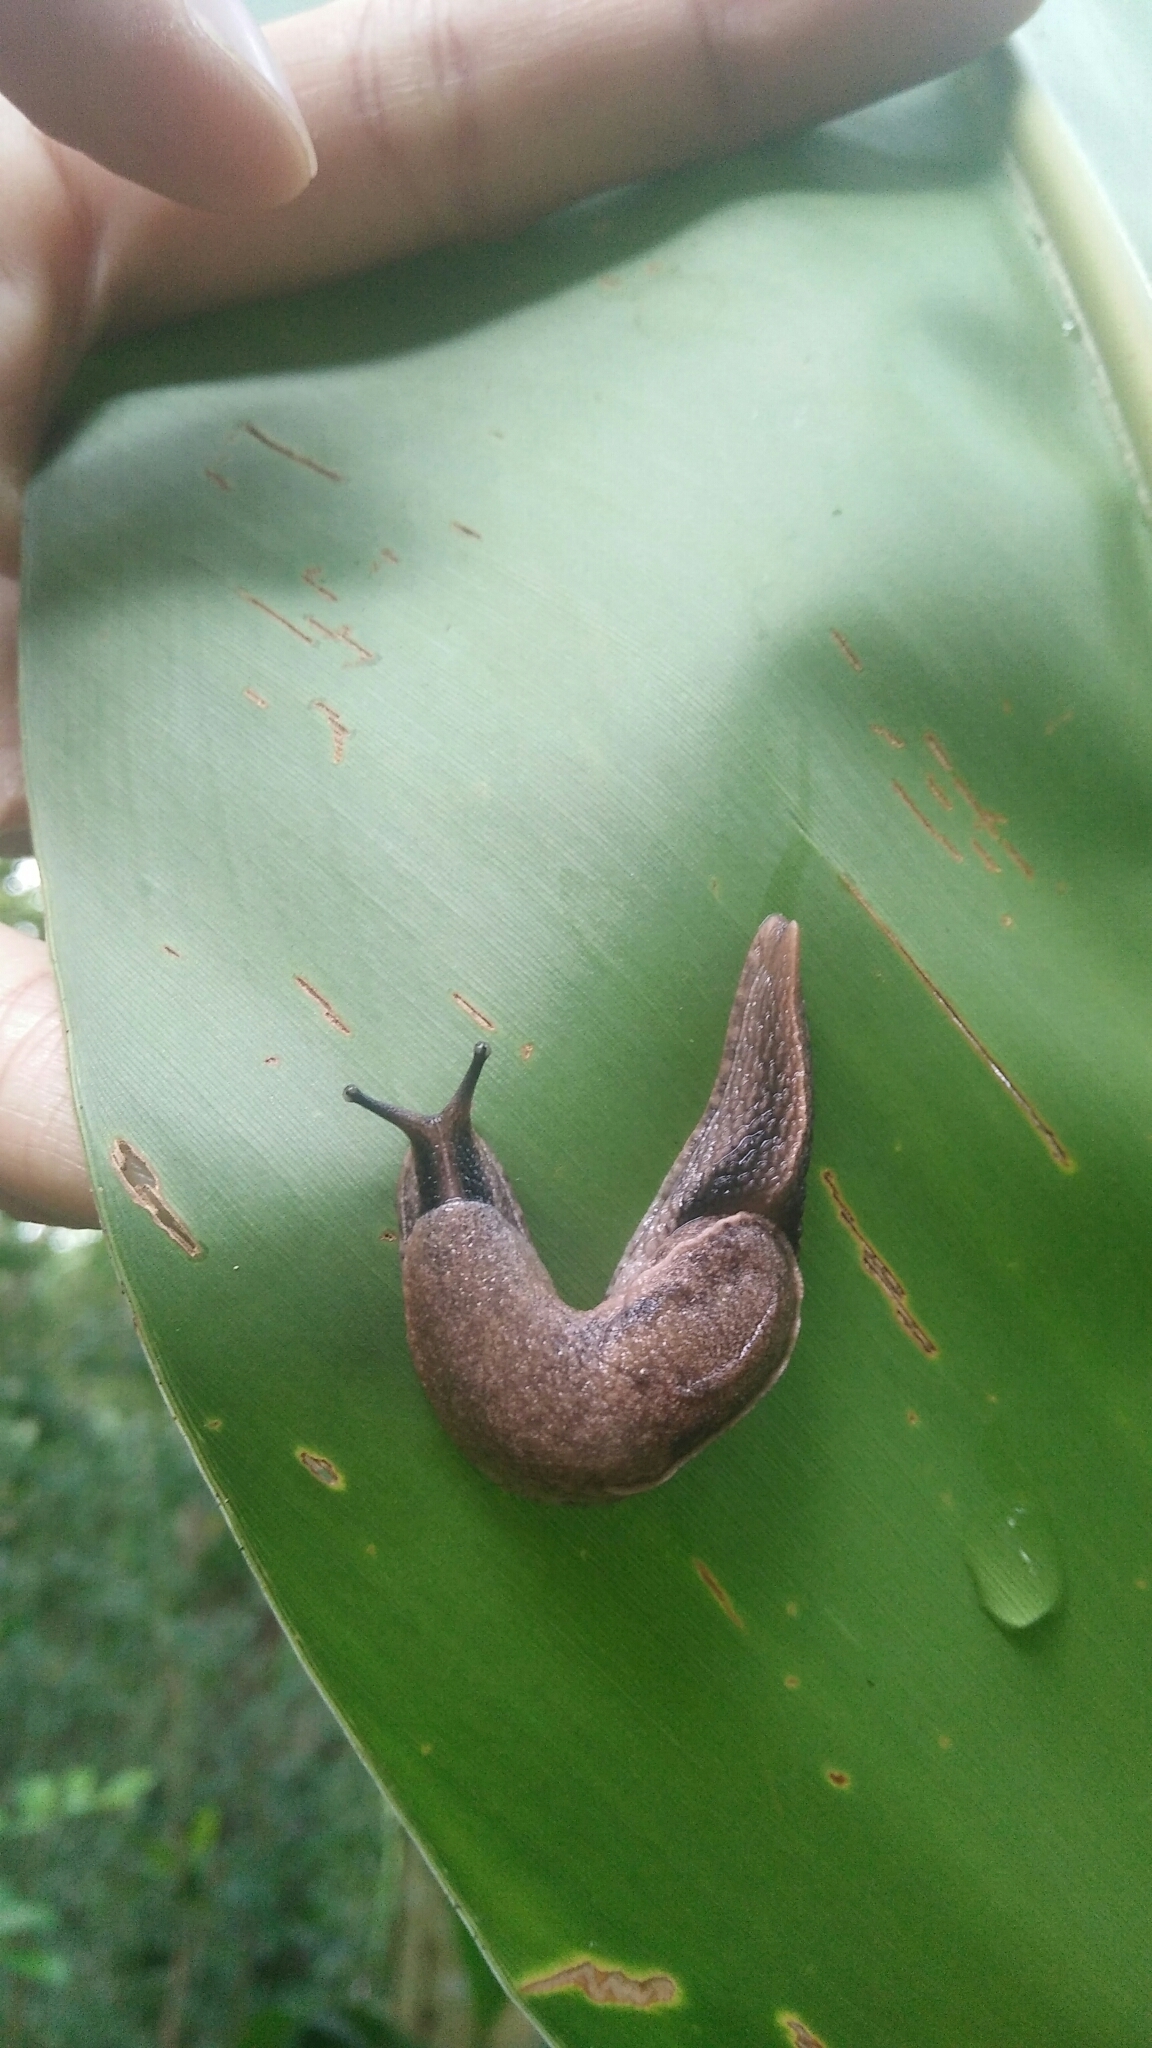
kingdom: Animalia
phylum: Mollusca
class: Gastropoda
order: Stylommatophora
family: Ariophantidae
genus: Parmarion
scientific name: Parmarion martensi
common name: Semi-slug
